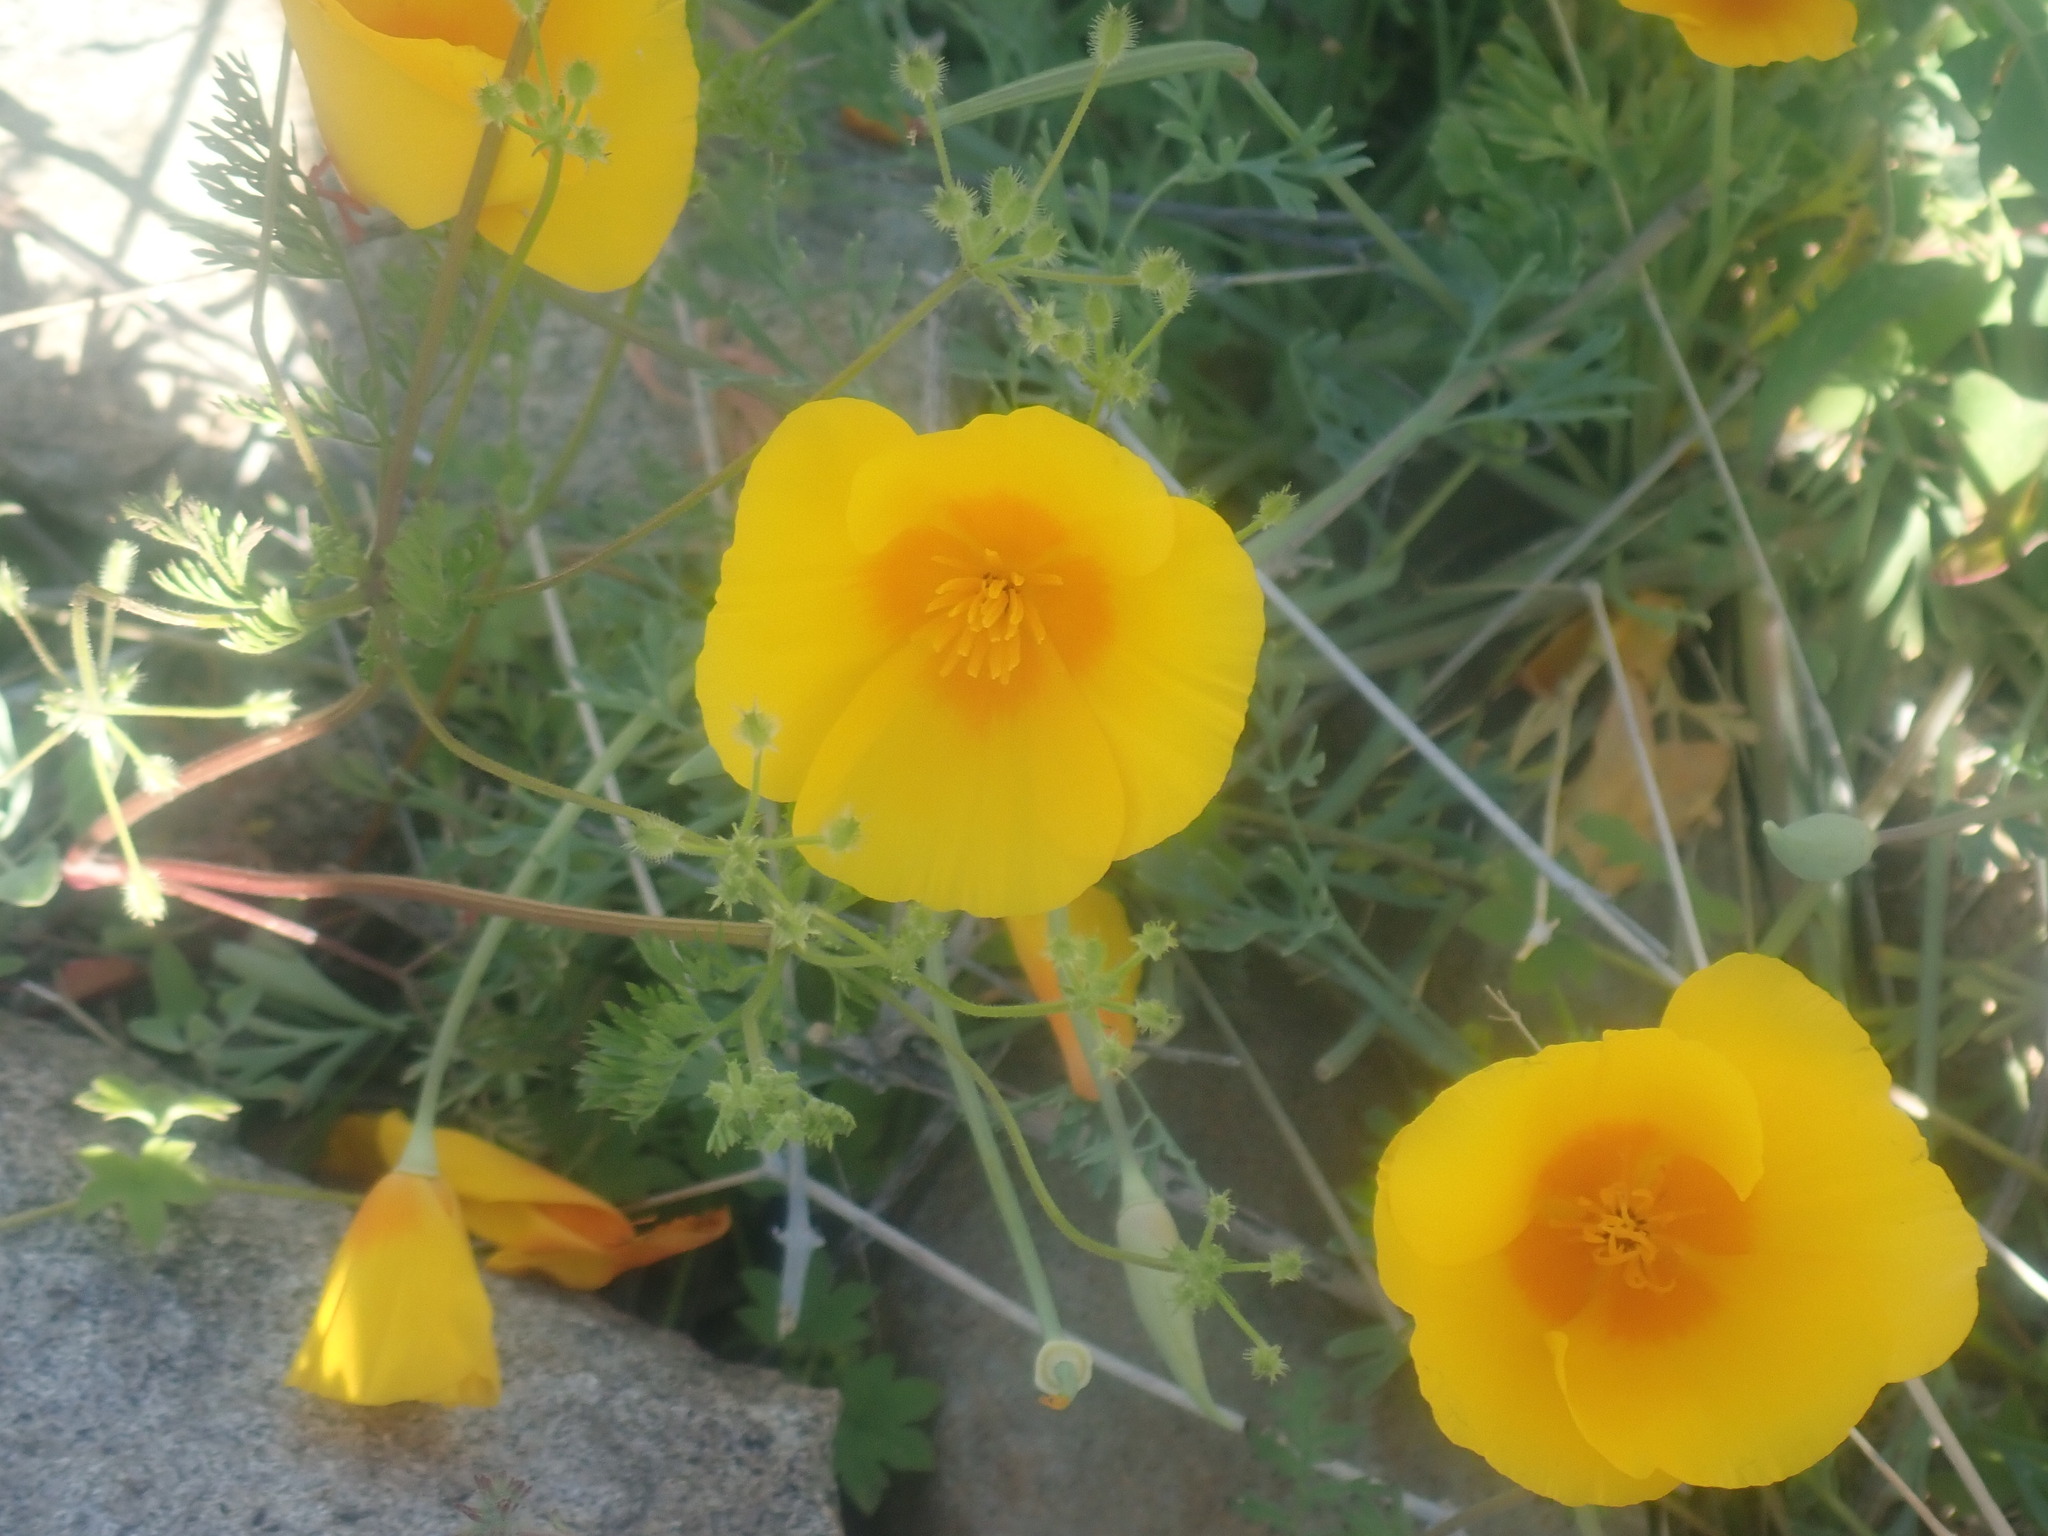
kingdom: Plantae
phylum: Tracheophyta
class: Magnoliopsida
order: Ranunculales
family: Papaveraceae
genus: Eschscholzia
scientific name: Eschscholzia californica
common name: California poppy
